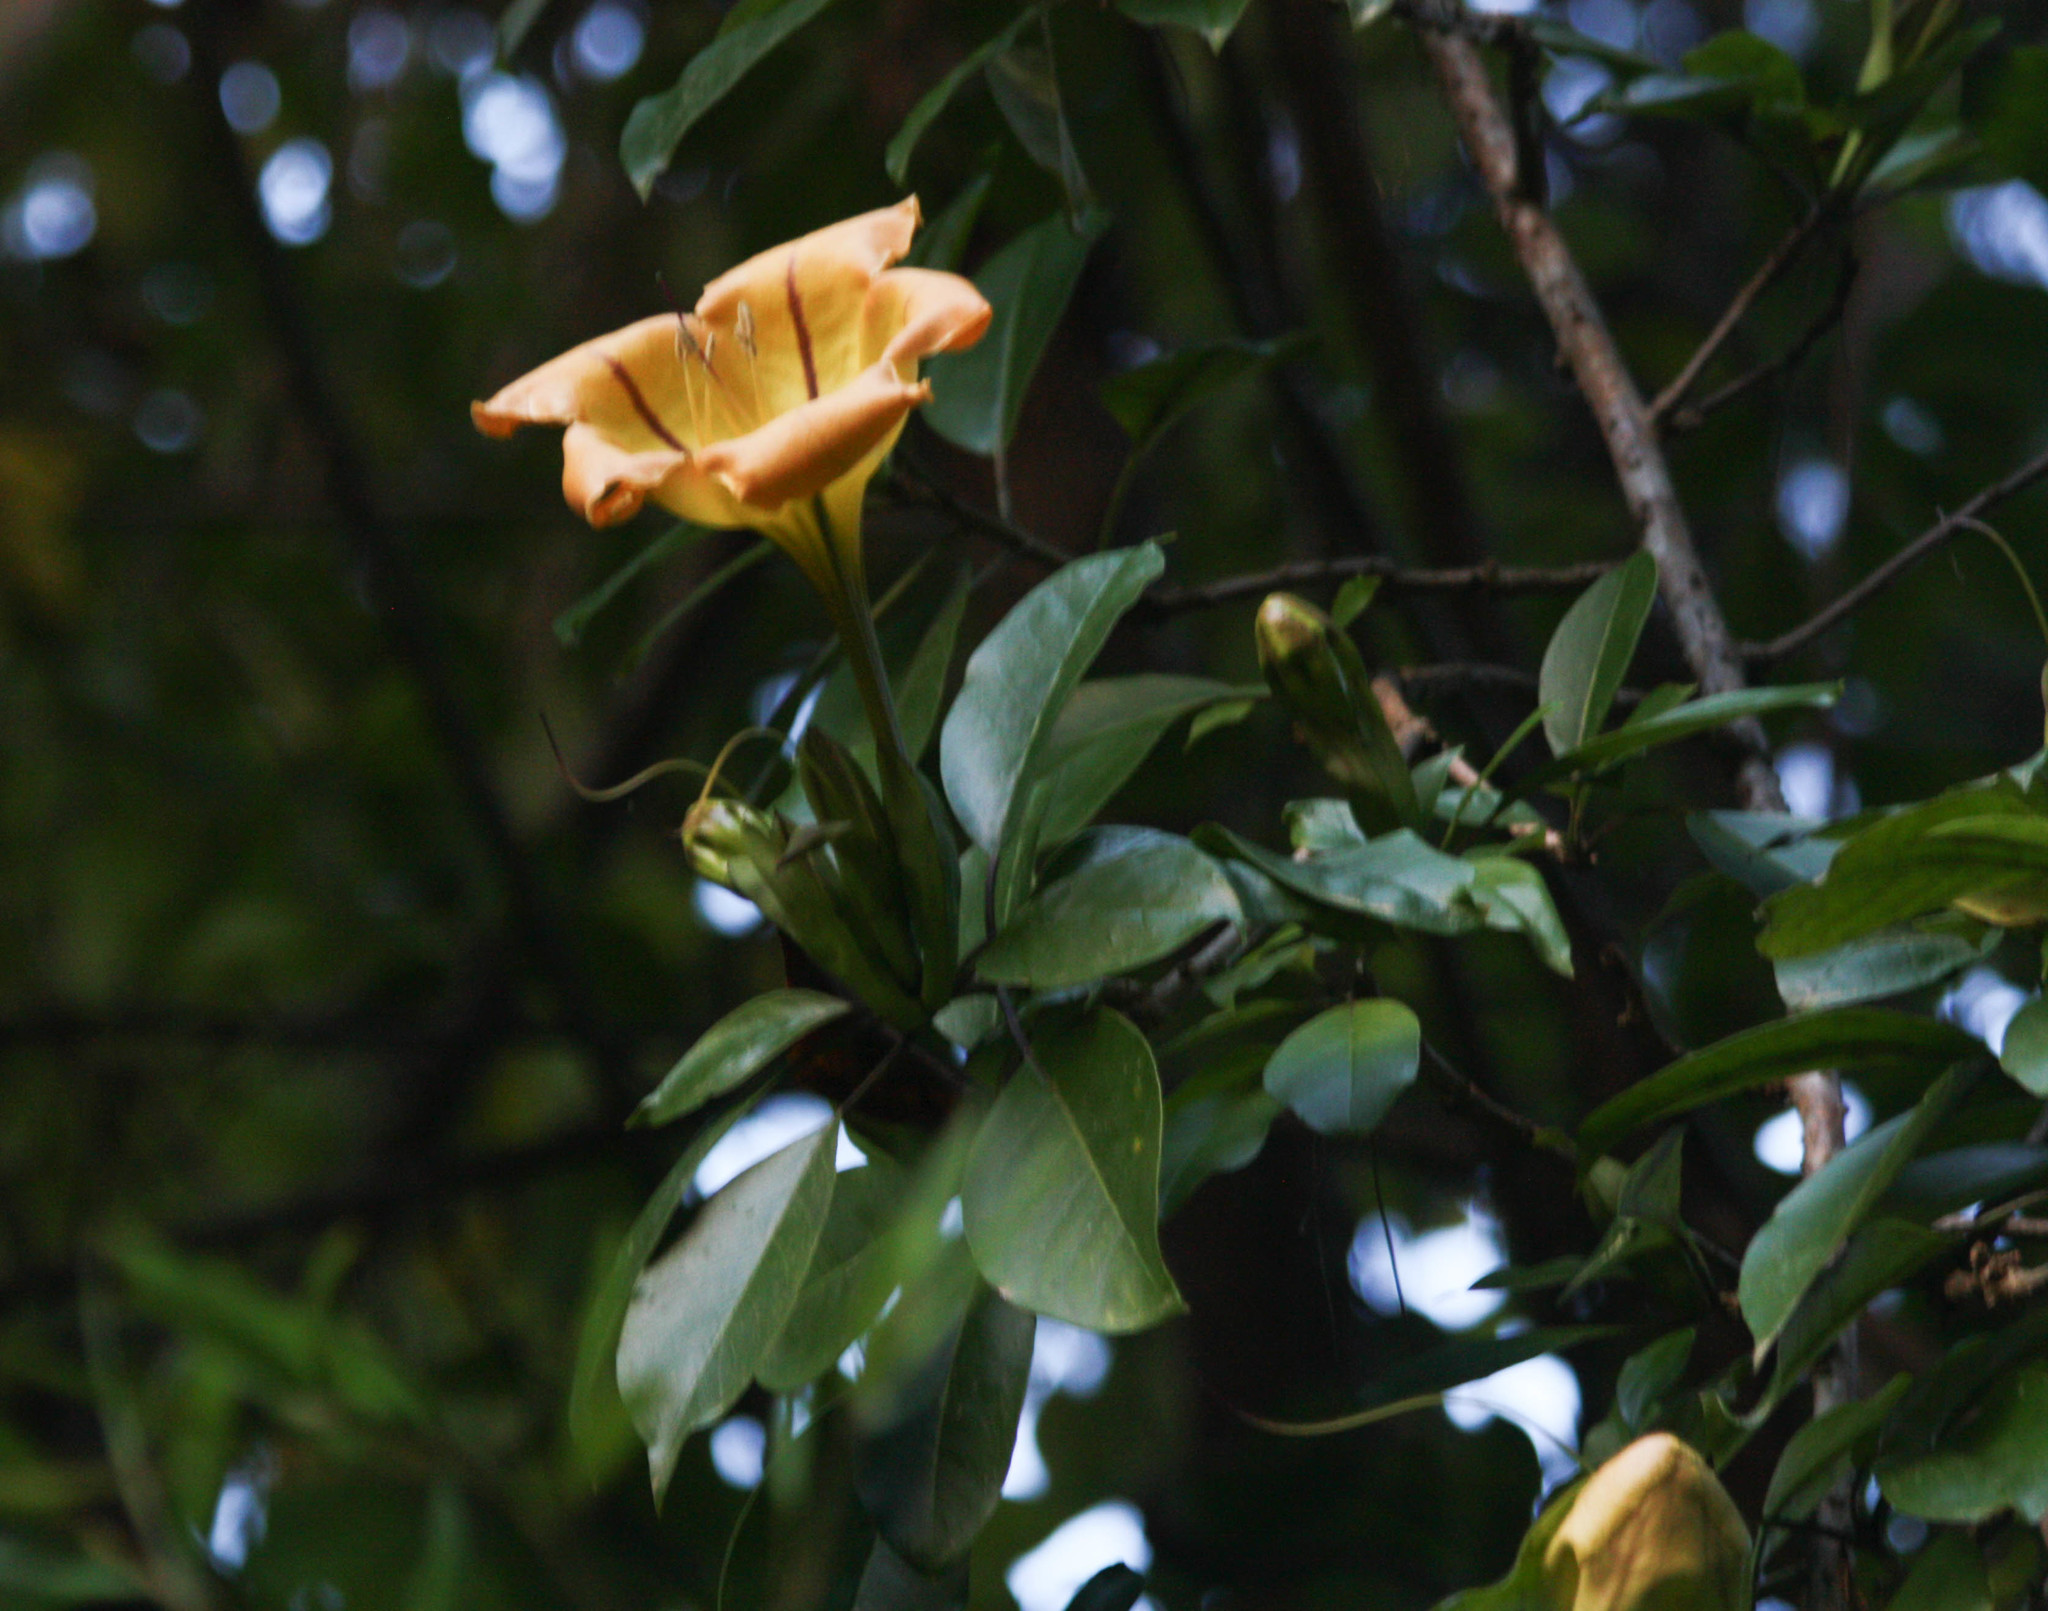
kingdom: Plantae
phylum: Tracheophyta
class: Magnoliopsida
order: Solanales
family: Solanaceae
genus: Solandra
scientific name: Solandra maxima
